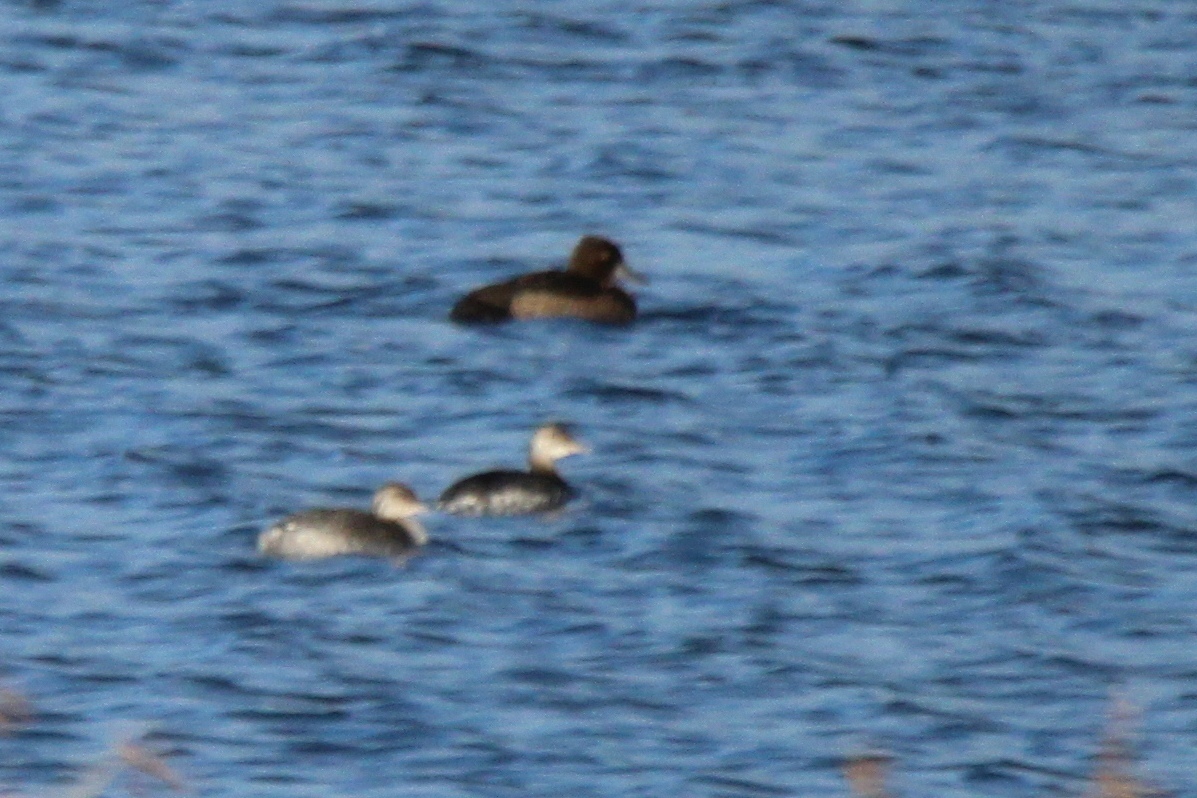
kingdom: Animalia
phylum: Chordata
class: Aves
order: Podicipediformes
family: Podicipedidae
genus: Podiceps
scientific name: Podiceps auritus
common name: Horned grebe
